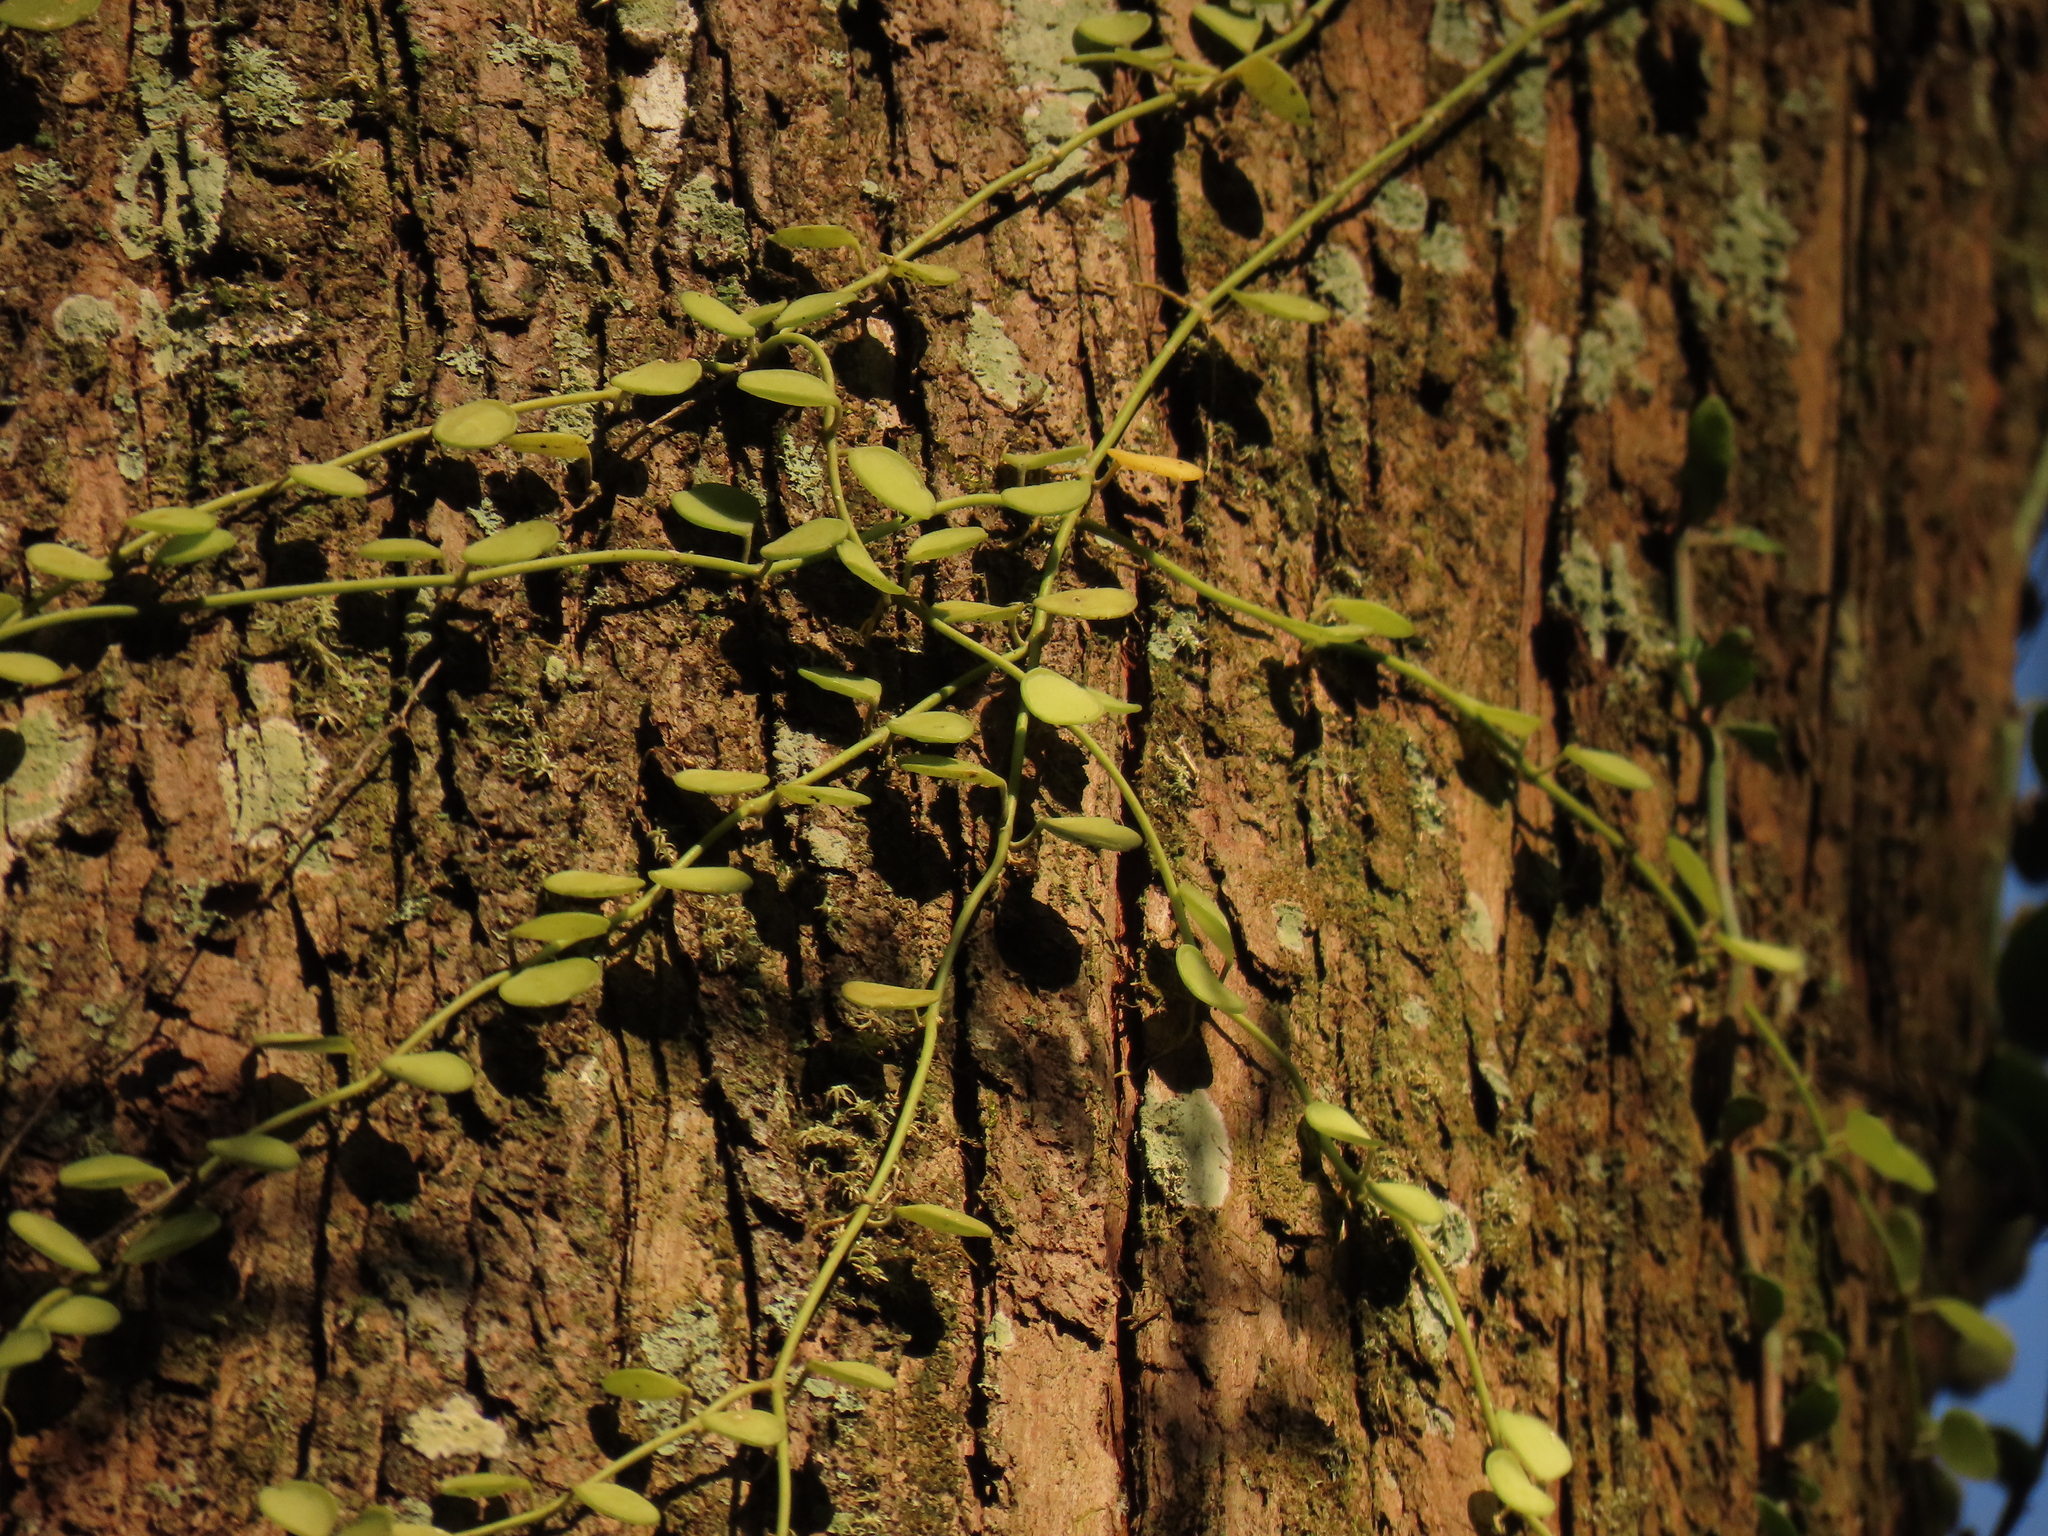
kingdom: Plantae
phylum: Tracheophyta
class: Magnoliopsida
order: Gentianales
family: Apocynaceae
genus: Dischidia
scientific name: Dischidia formosana
